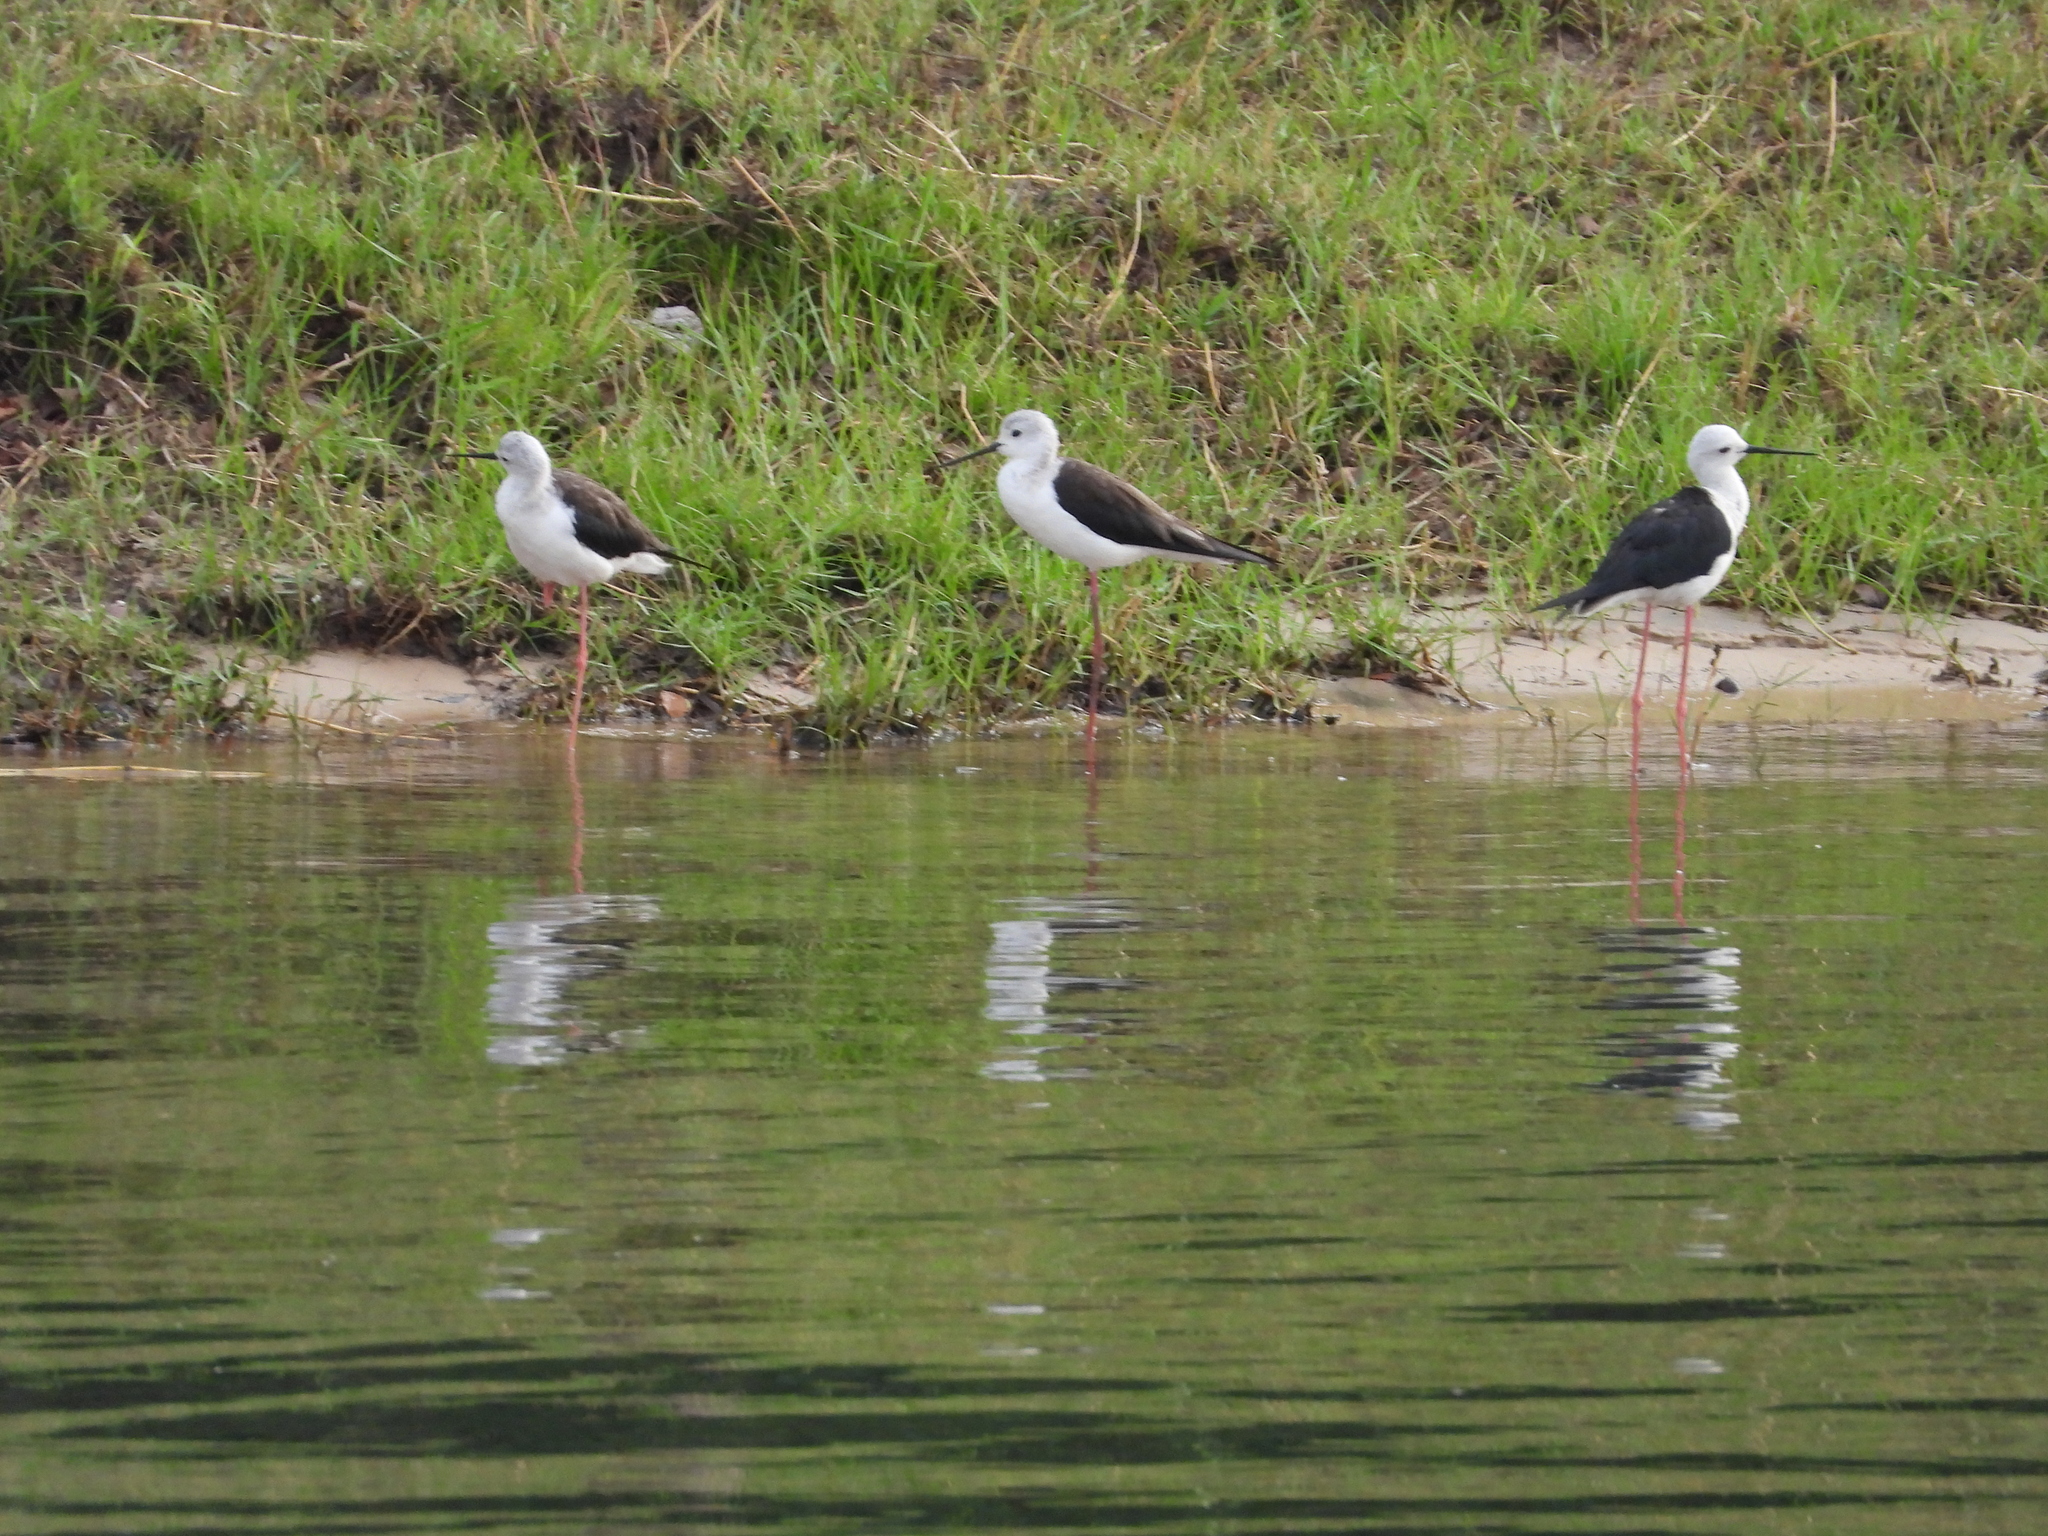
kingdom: Animalia
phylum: Chordata
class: Aves
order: Charadriiformes
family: Recurvirostridae
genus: Himantopus
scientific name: Himantopus himantopus
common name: Black-winged stilt
